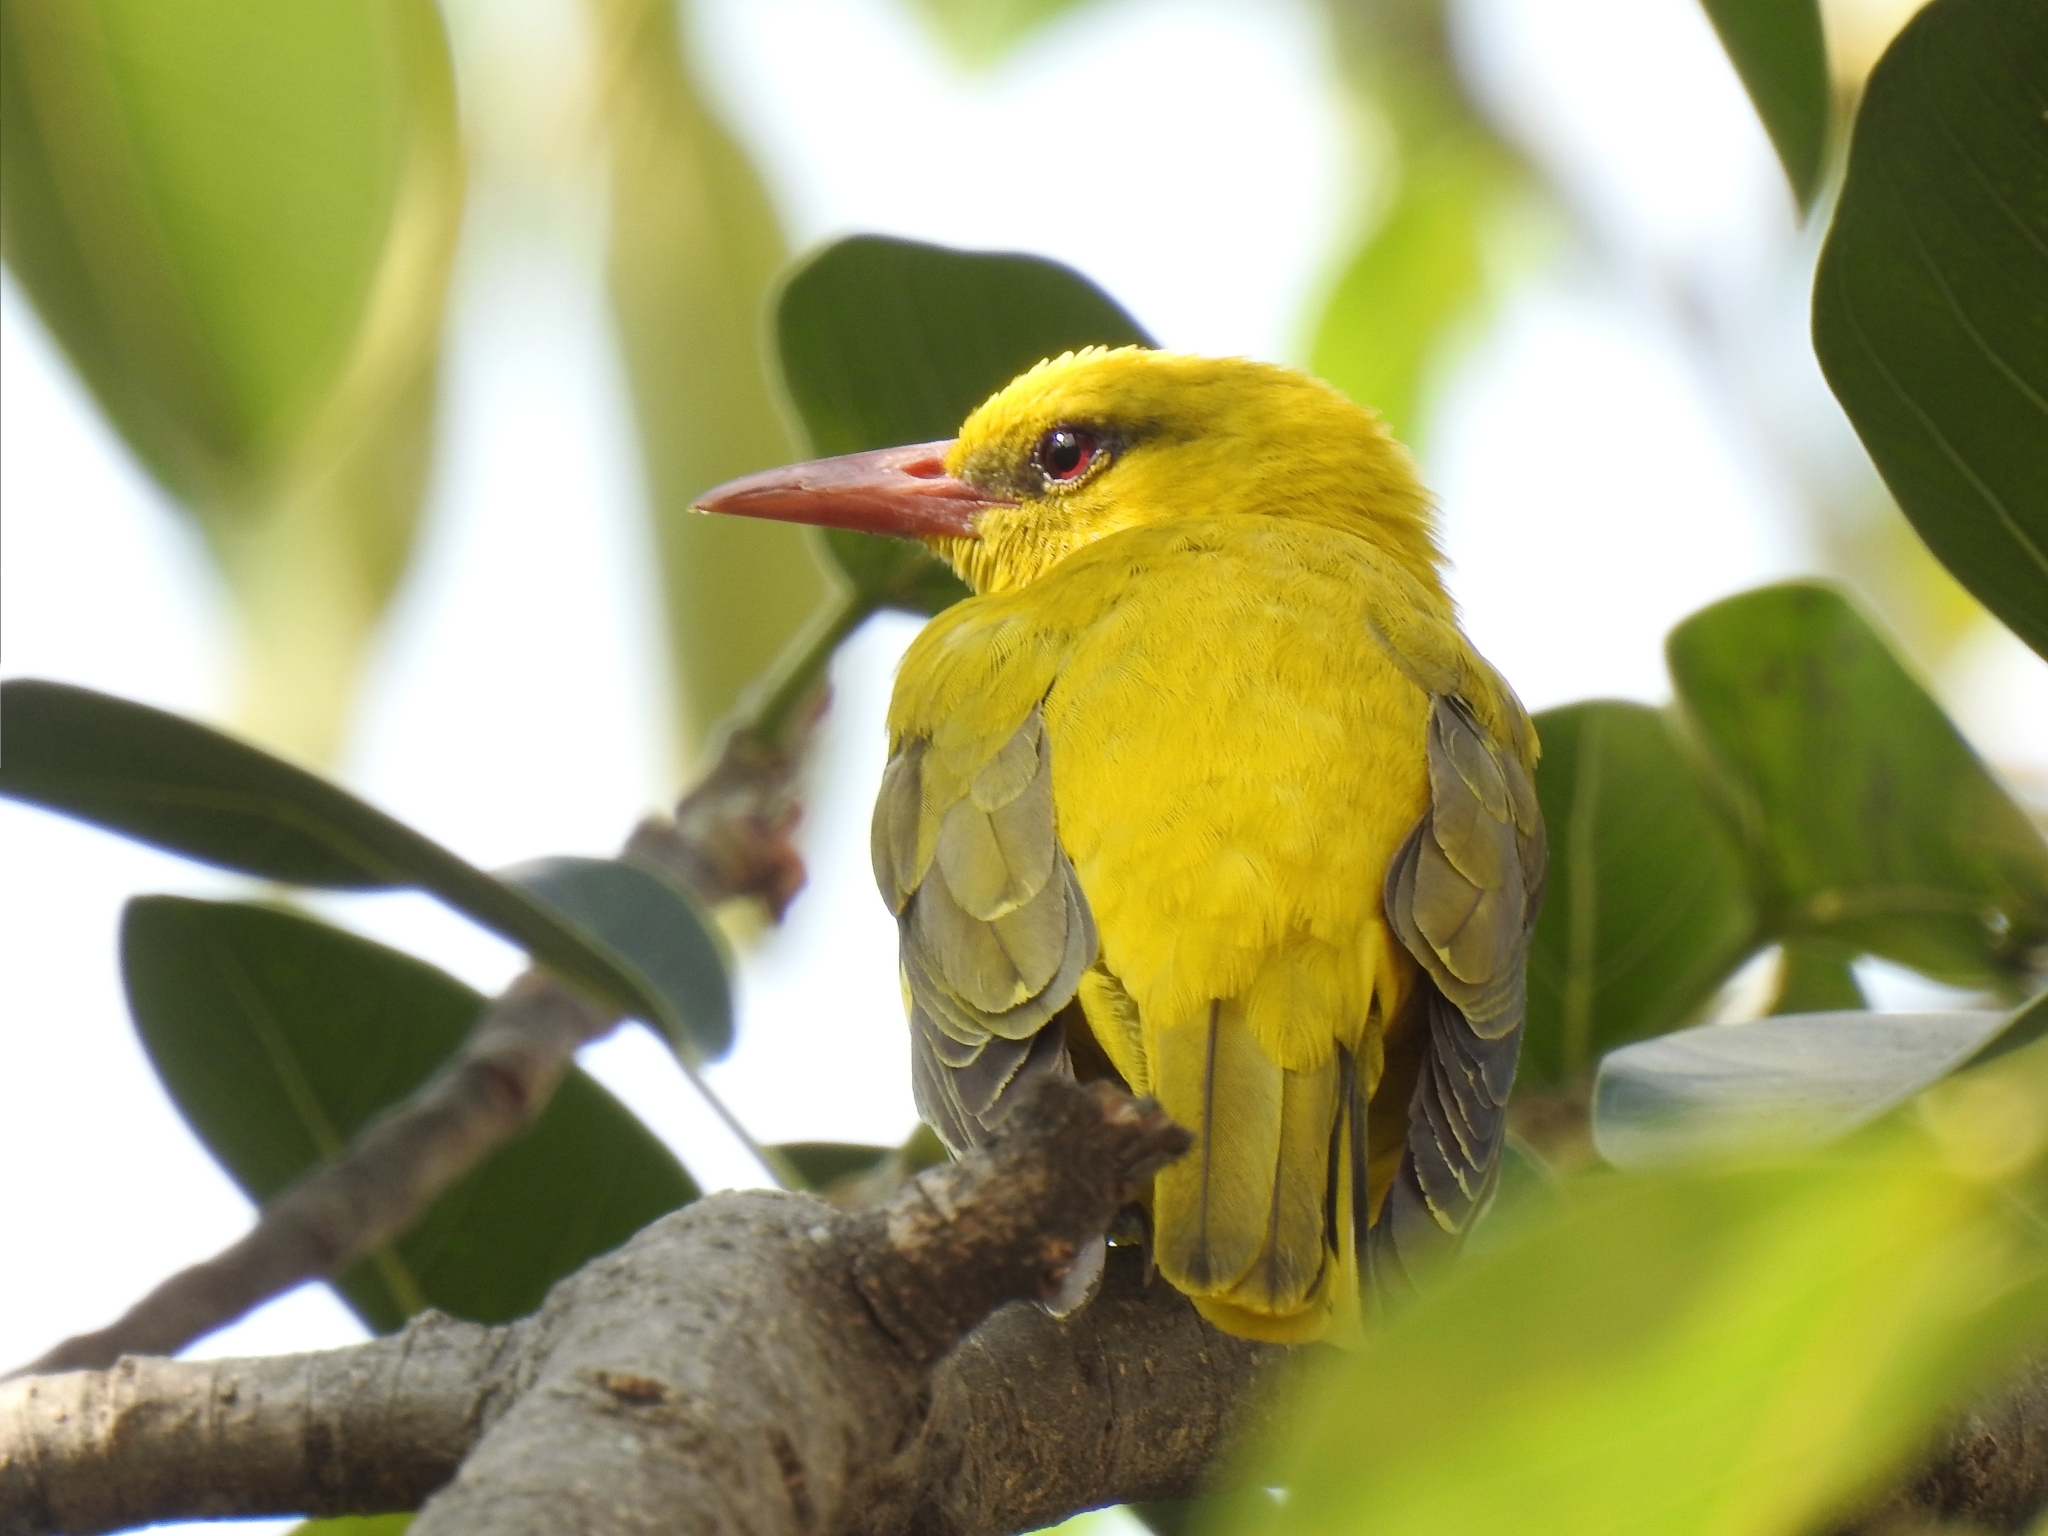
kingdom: Animalia
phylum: Chordata
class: Aves
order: Passeriformes
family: Oriolidae
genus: Oriolus
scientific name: Oriolus kundoo
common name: Indian golden oriole
